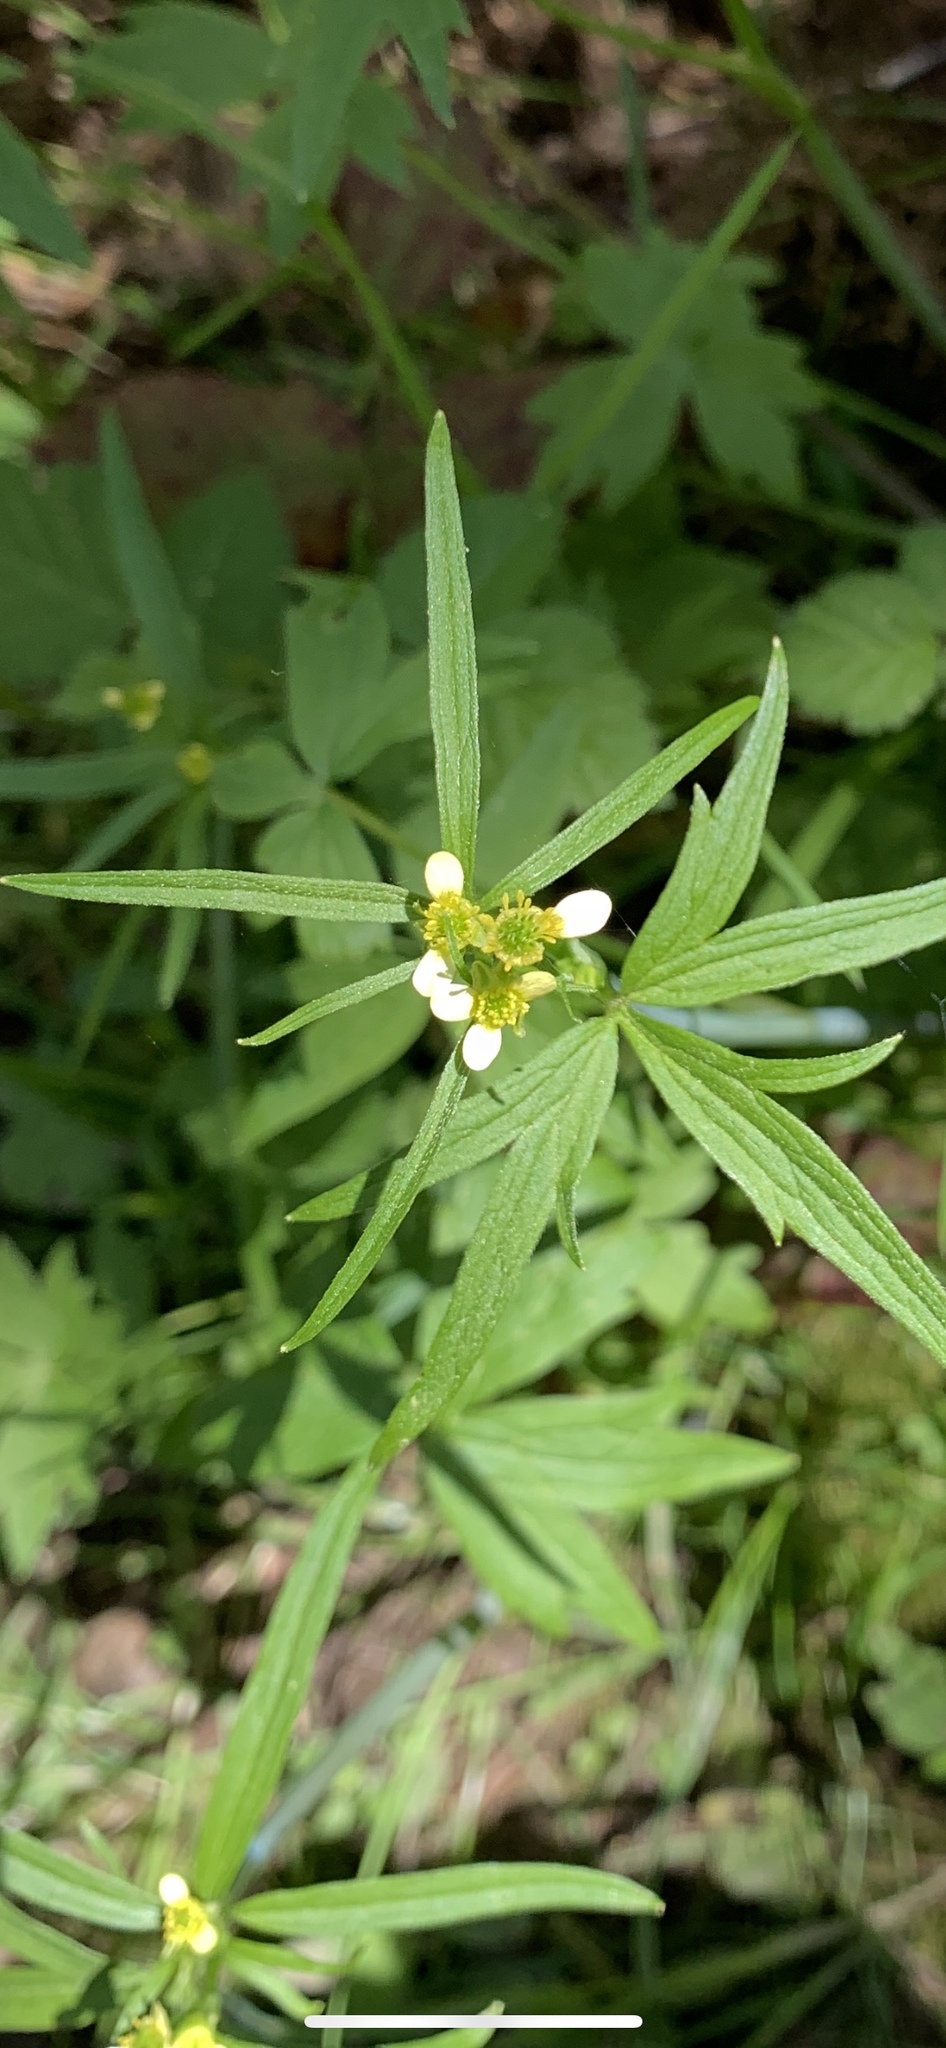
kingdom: Plantae
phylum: Tracheophyta
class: Magnoliopsida
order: Ranunculales
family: Ranunculaceae
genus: Ranunculus
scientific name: Ranunculus uncinatus
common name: Little buttercup
